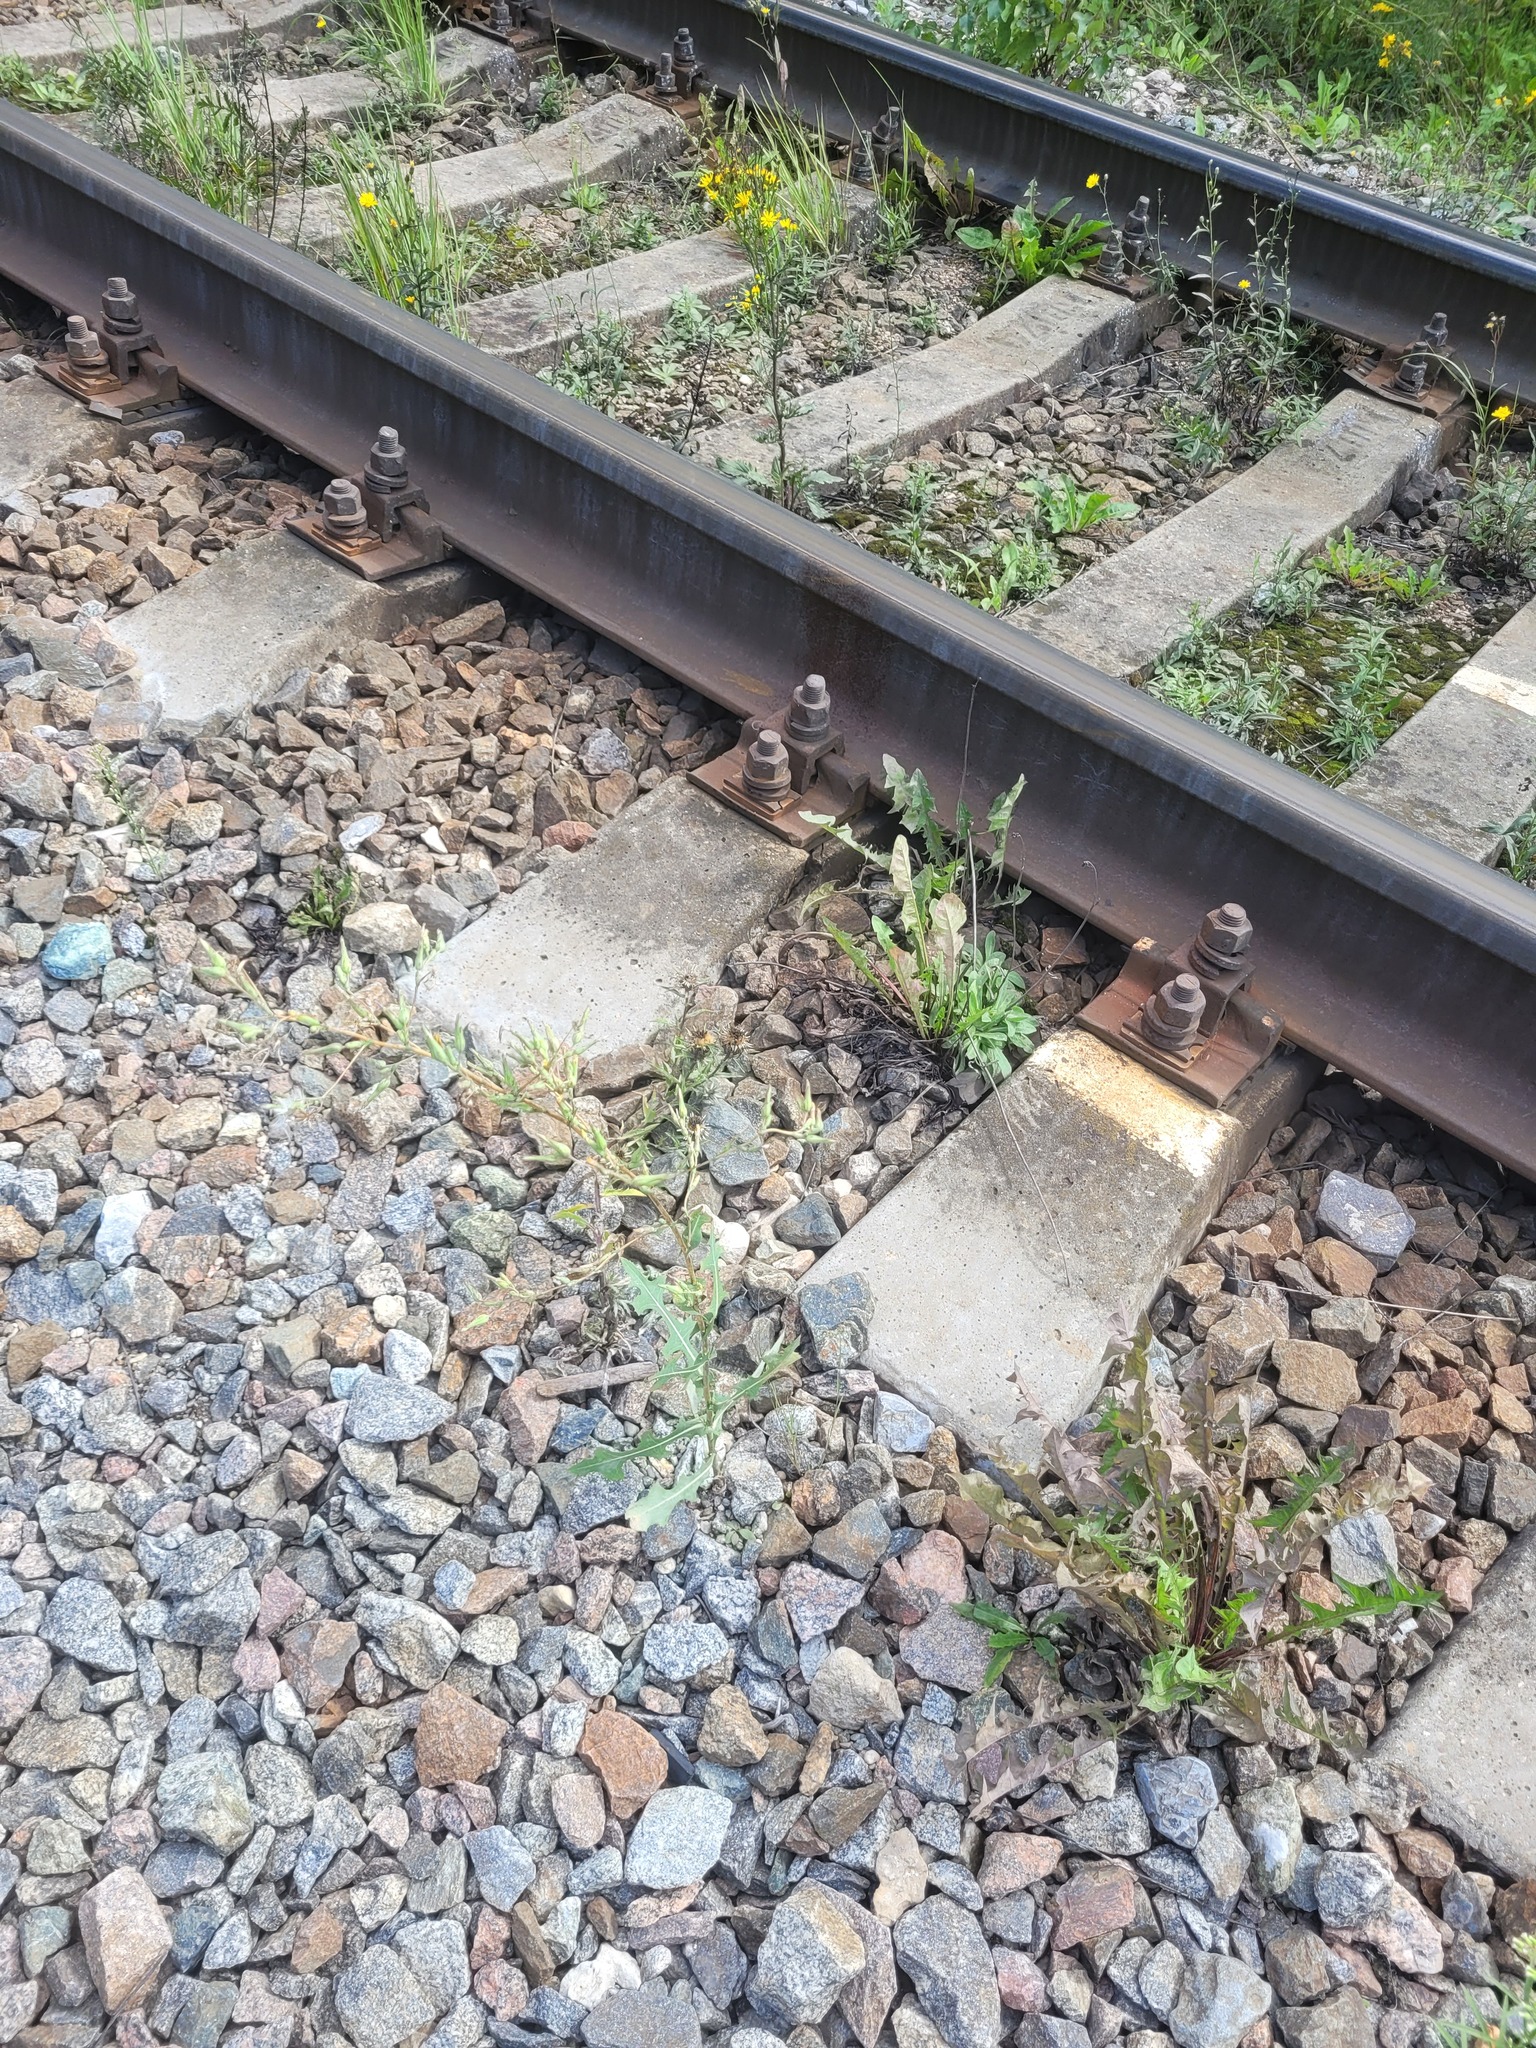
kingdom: Plantae
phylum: Tracheophyta
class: Magnoliopsida
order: Asterales
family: Asteraceae
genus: Lactuca
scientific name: Lactuca serriola
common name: Prickly lettuce
